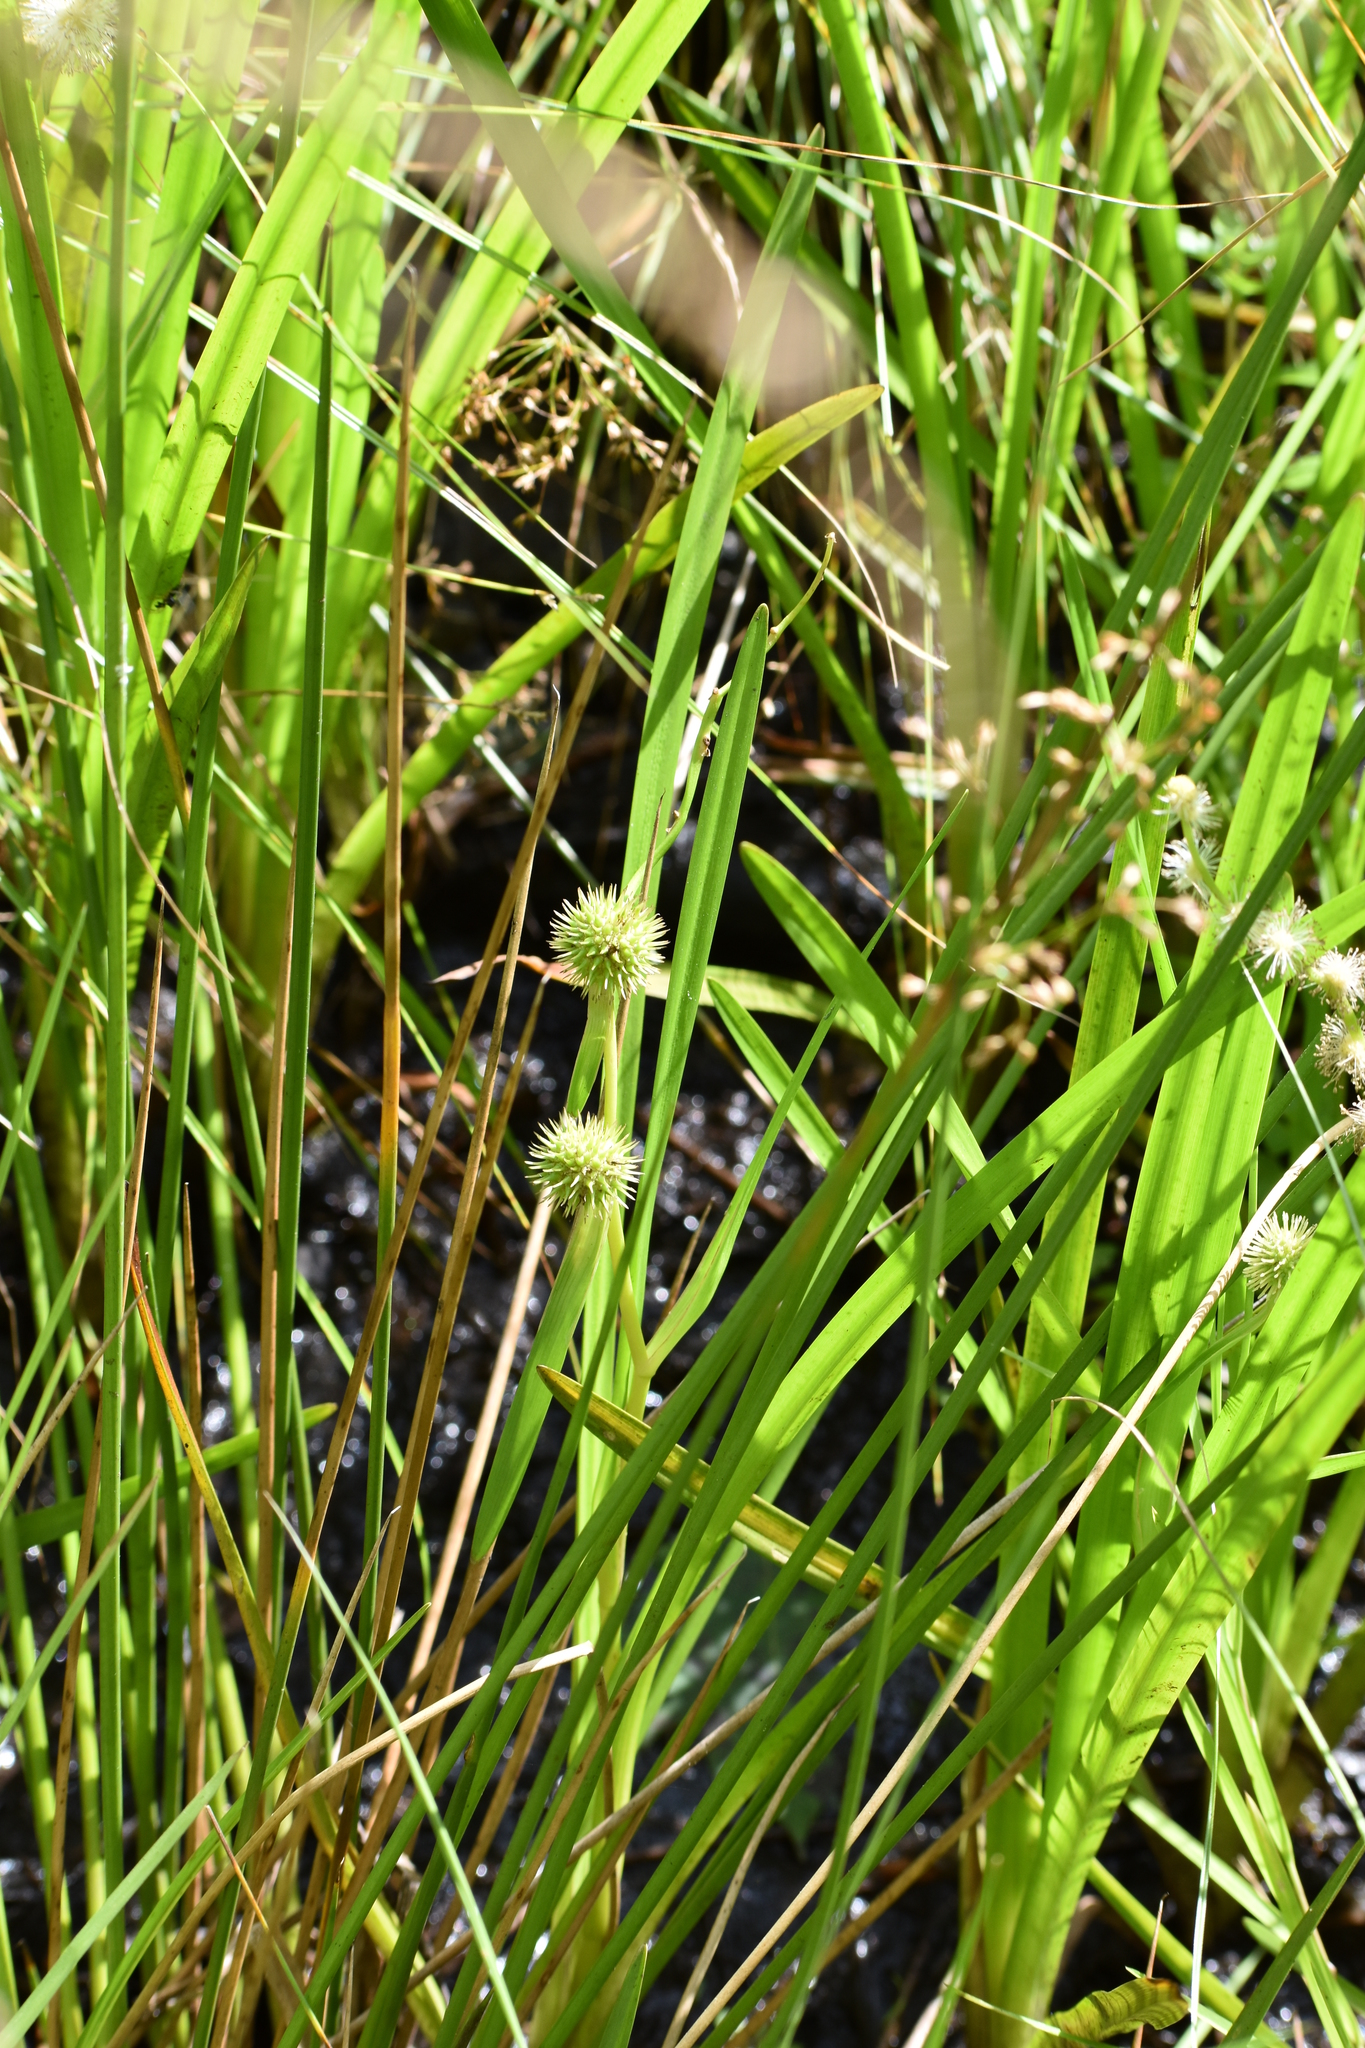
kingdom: Plantae
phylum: Tracheophyta
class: Liliopsida
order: Poales
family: Typhaceae
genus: Sparganium
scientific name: Sparganium americanum
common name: American burreed
